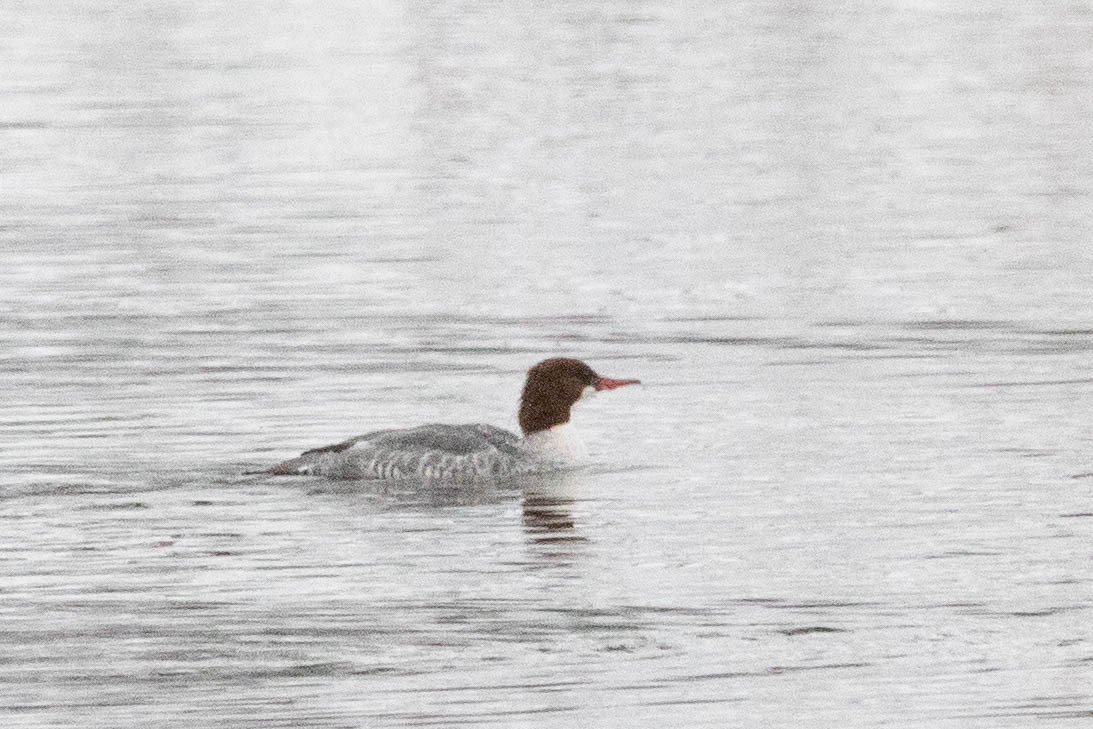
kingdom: Animalia
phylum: Chordata
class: Aves
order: Anseriformes
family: Anatidae
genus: Mergus
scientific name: Mergus merganser
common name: Common merganser
